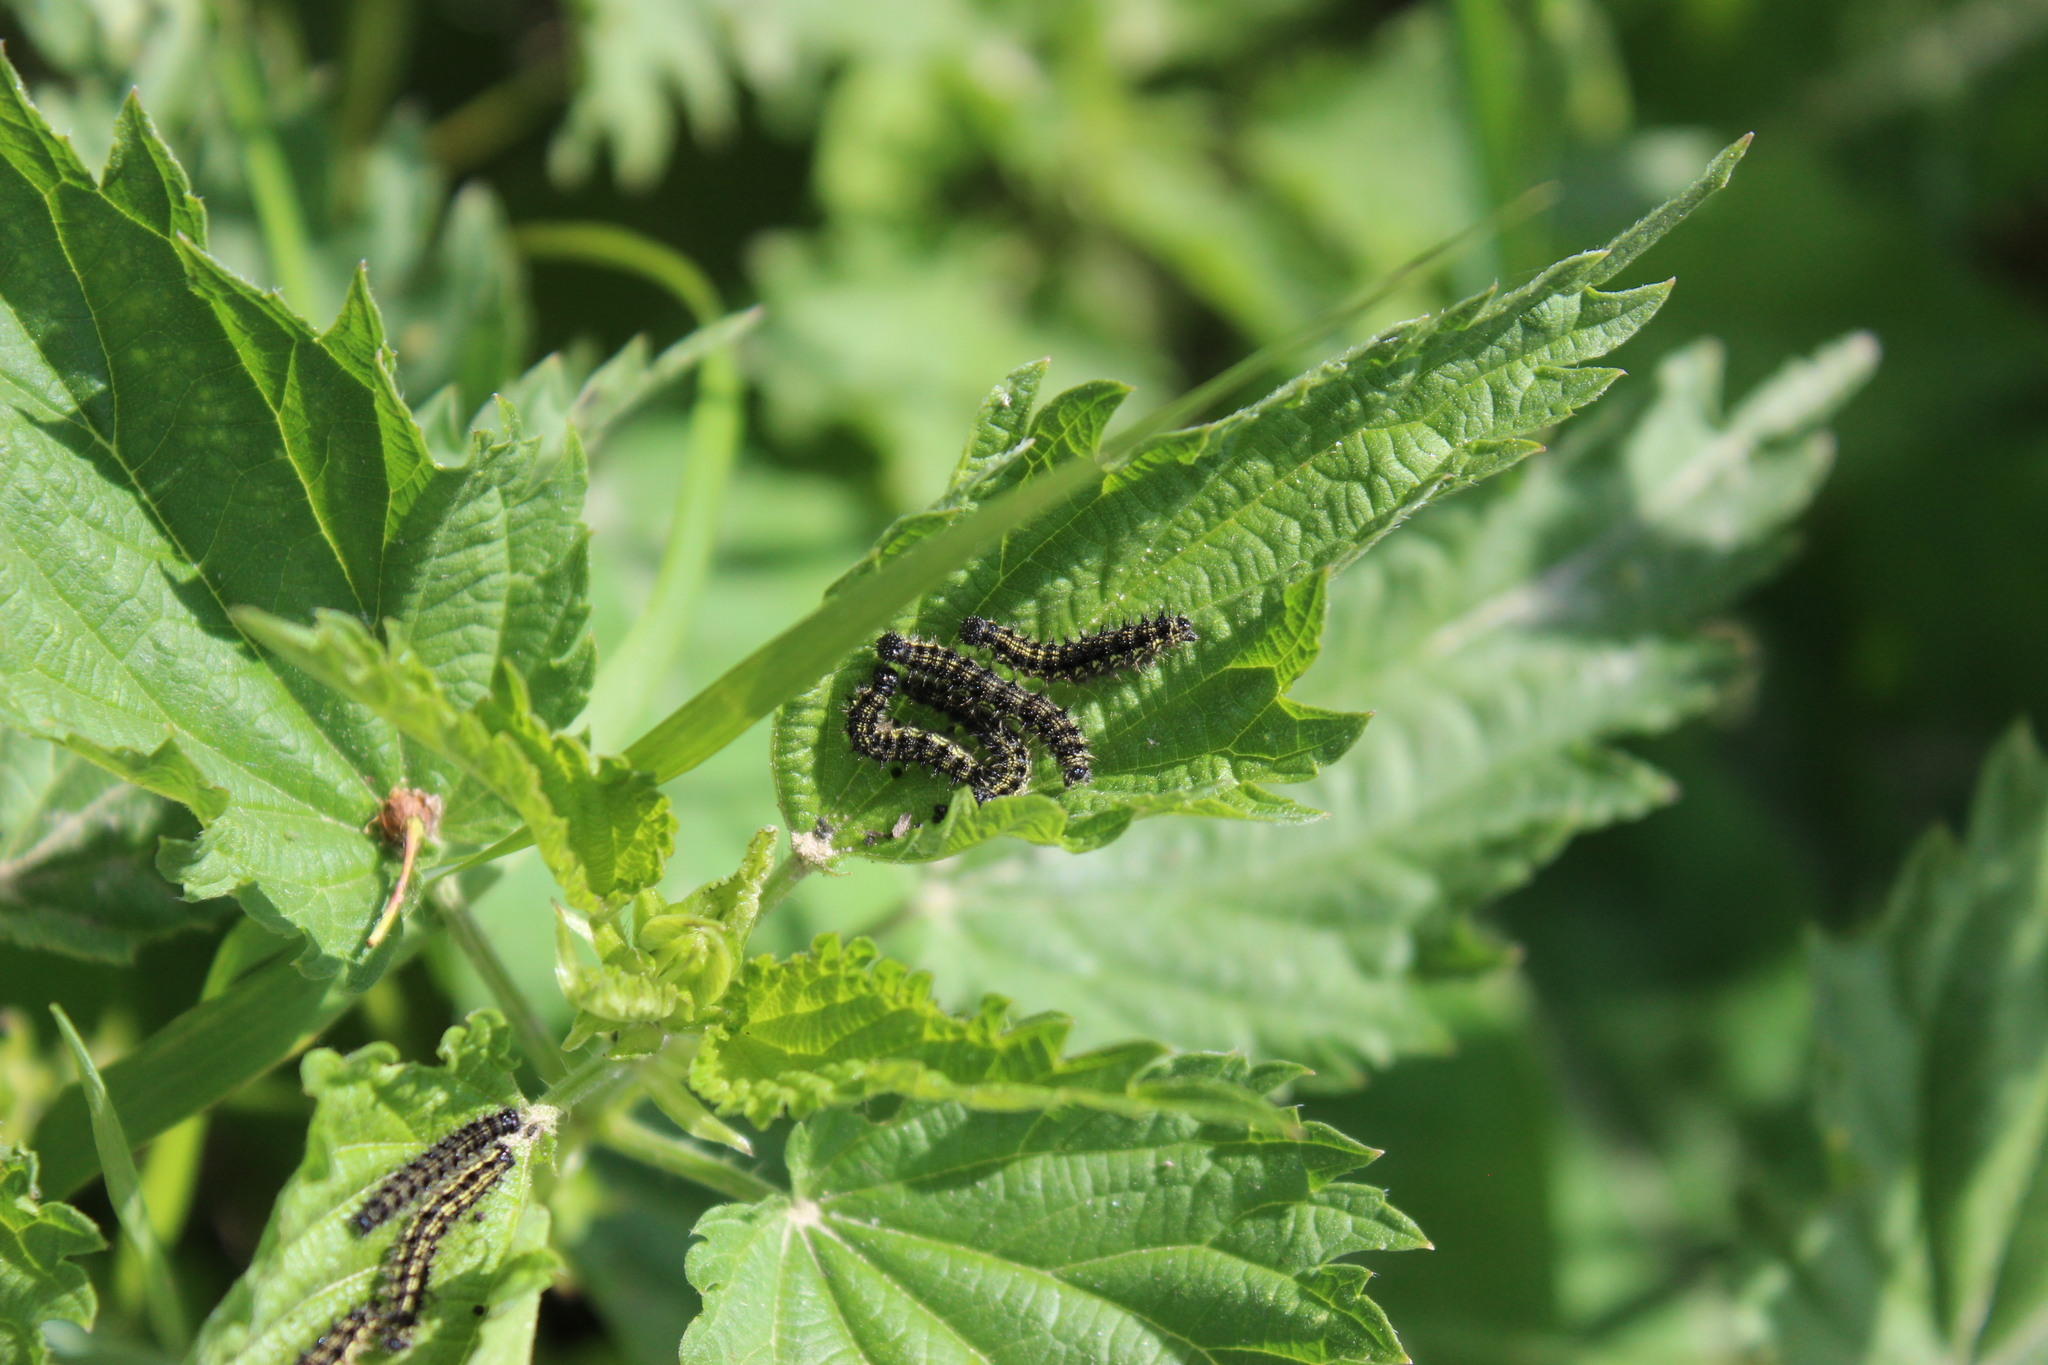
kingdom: Animalia
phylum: Arthropoda
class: Insecta
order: Lepidoptera
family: Nymphalidae
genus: Aglais
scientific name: Aglais urticae
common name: Small tortoiseshell
